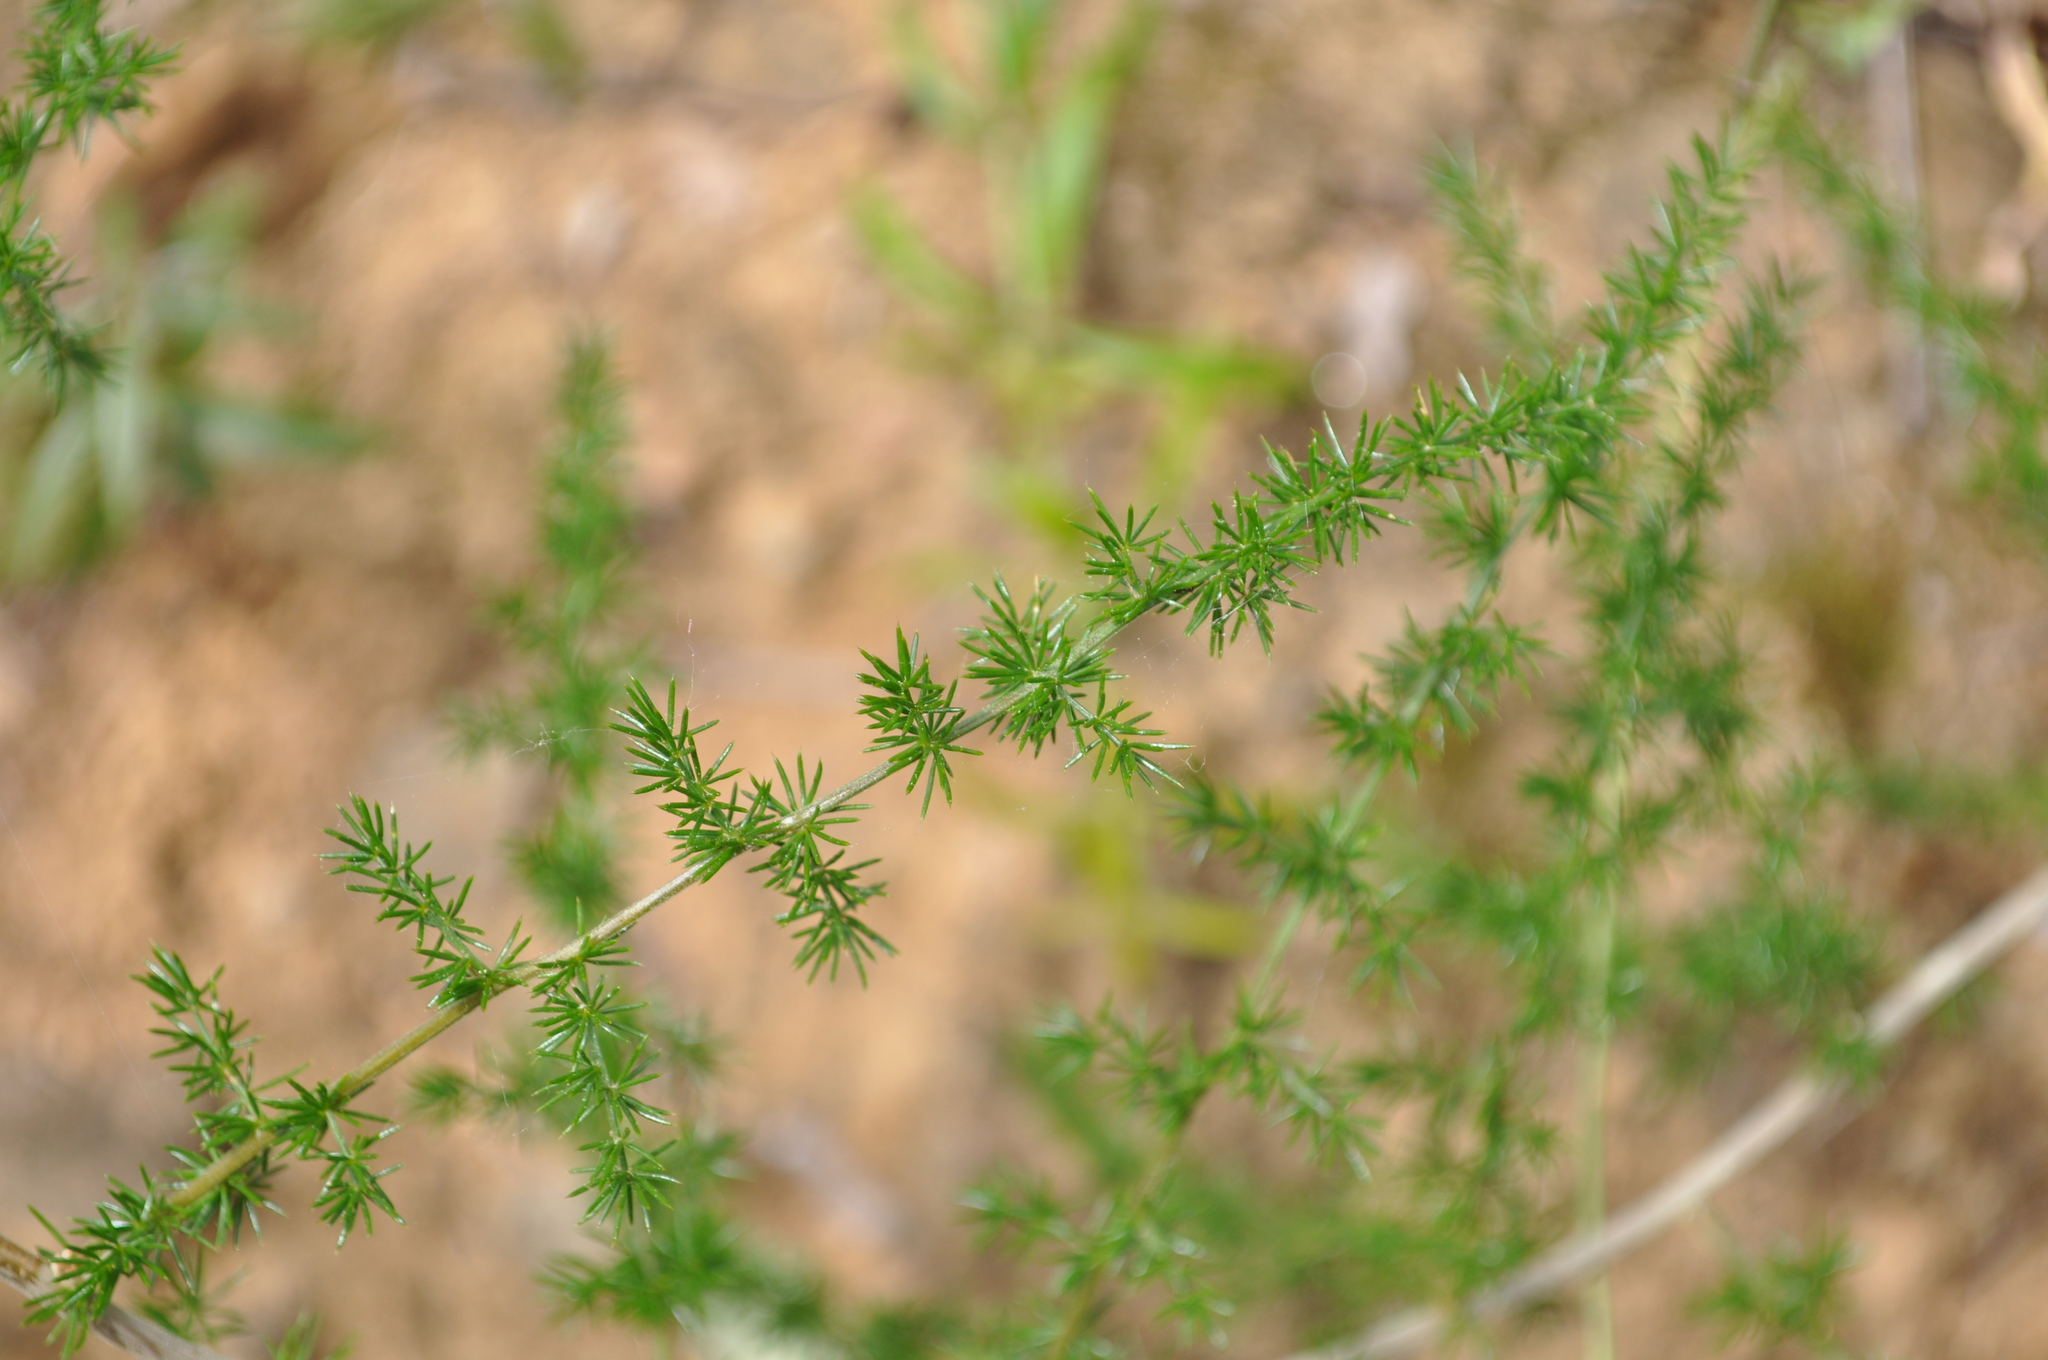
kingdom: Plantae
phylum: Tracheophyta
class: Liliopsida
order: Asparagales
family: Asparagaceae
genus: Asparagus
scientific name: Asparagus acutifolius
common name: Wild asparagus
